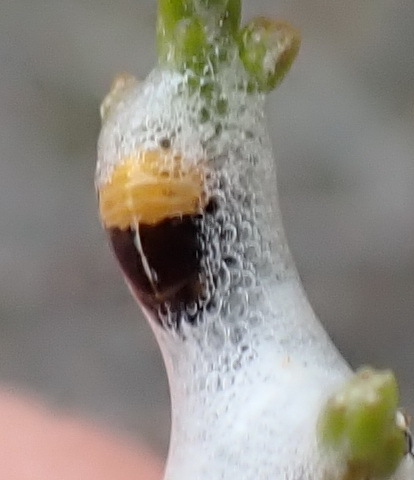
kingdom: Animalia
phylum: Arthropoda
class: Insecta
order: Hemiptera
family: Aphrophoridae
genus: Tremapterus
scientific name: Tremapterus
